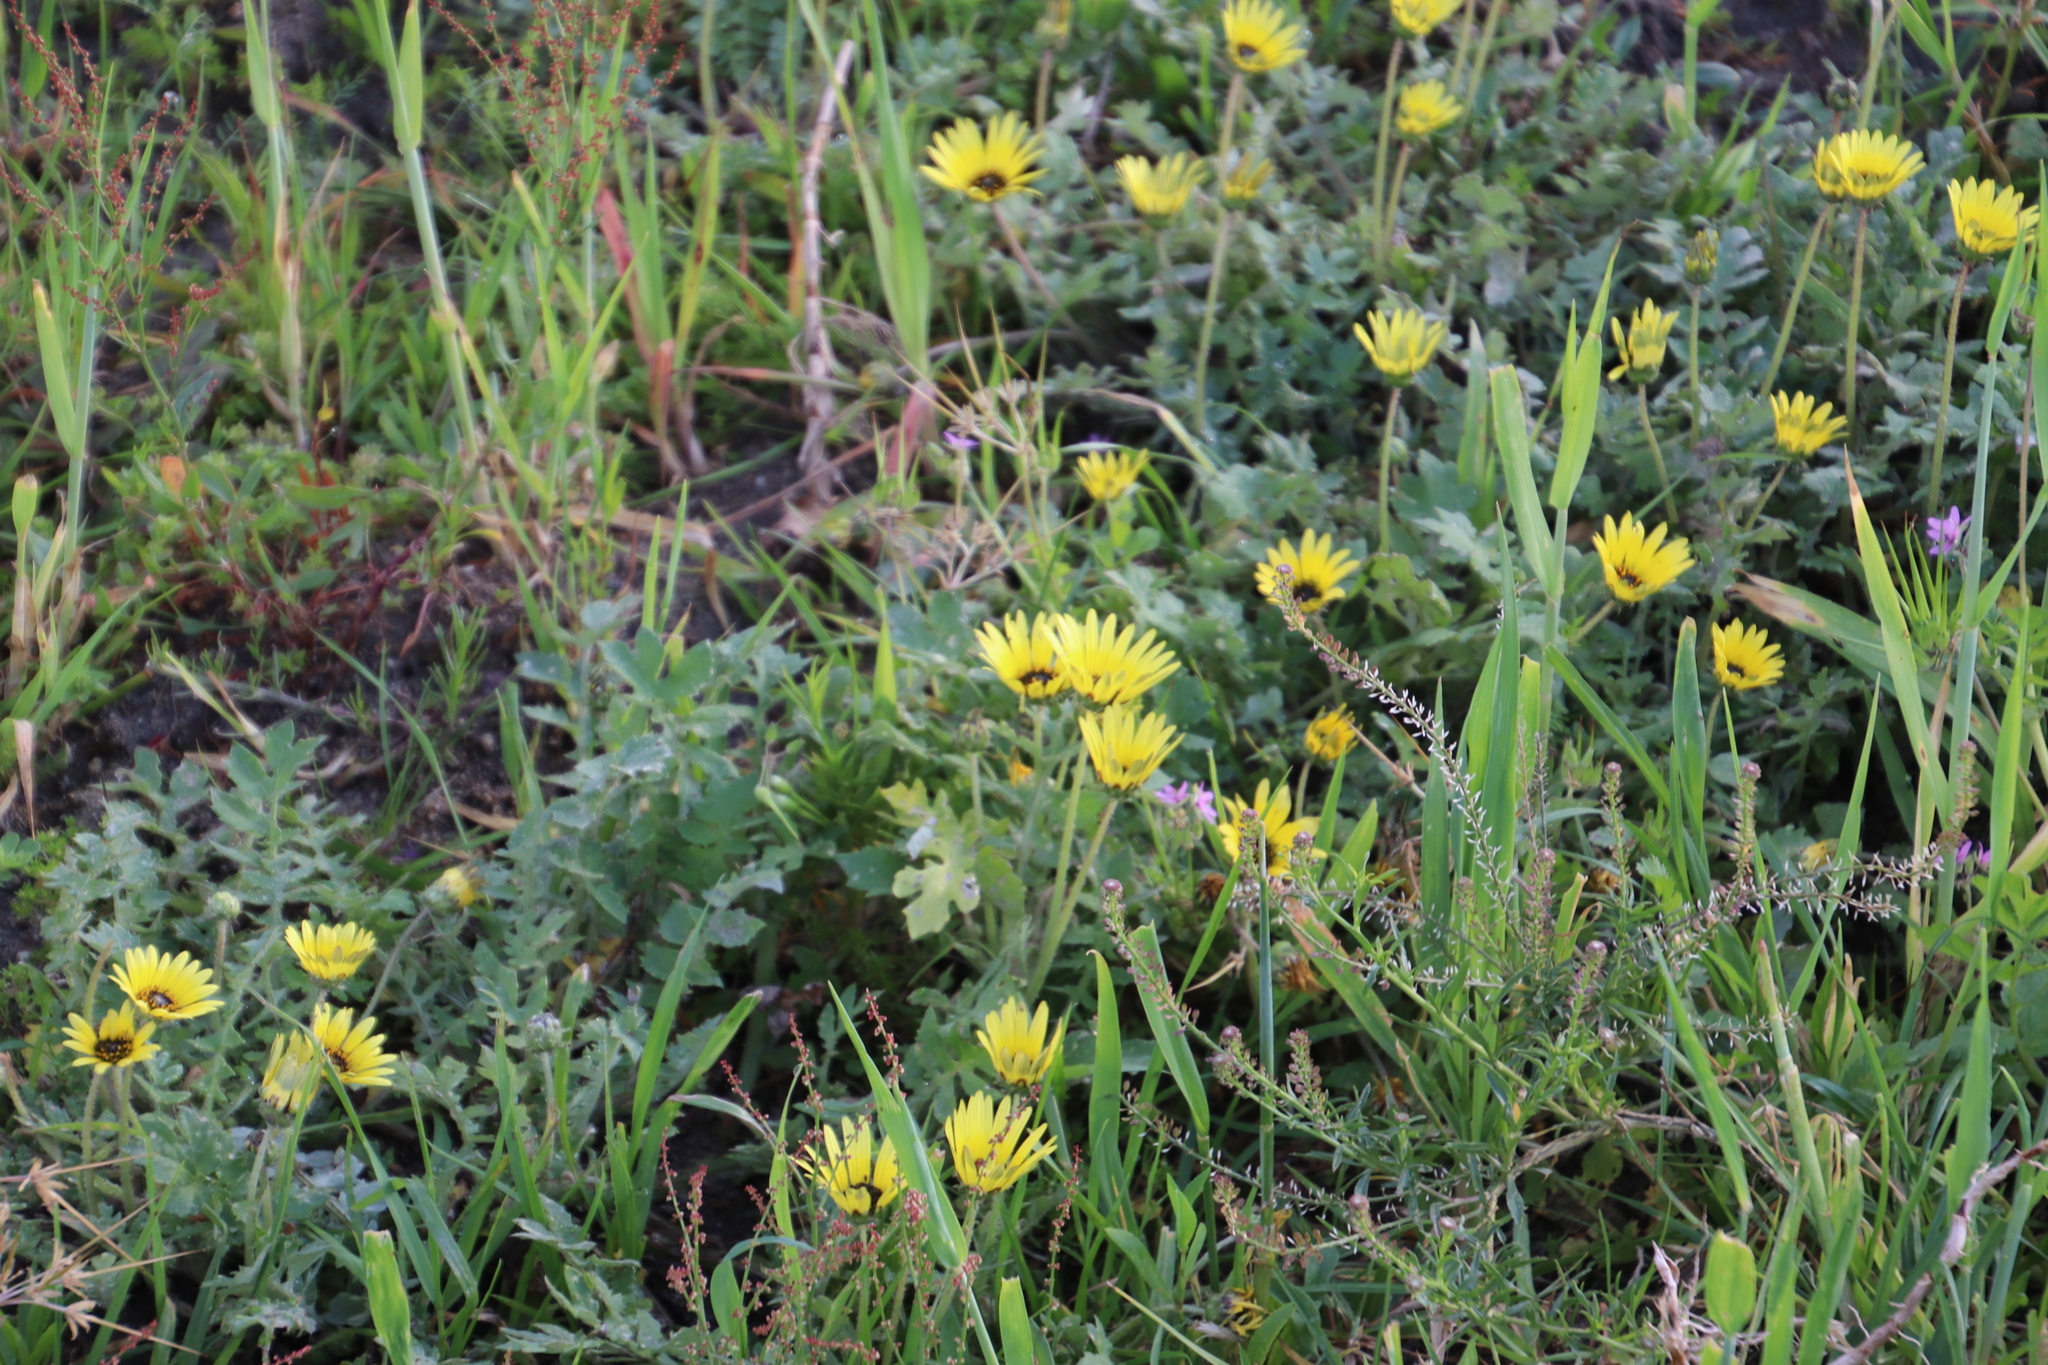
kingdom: Plantae
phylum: Tracheophyta
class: Magnoliopsida
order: Asterales
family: Asteraceae
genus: Arctotheca
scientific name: Arctotheca calendula
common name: Capeweed
